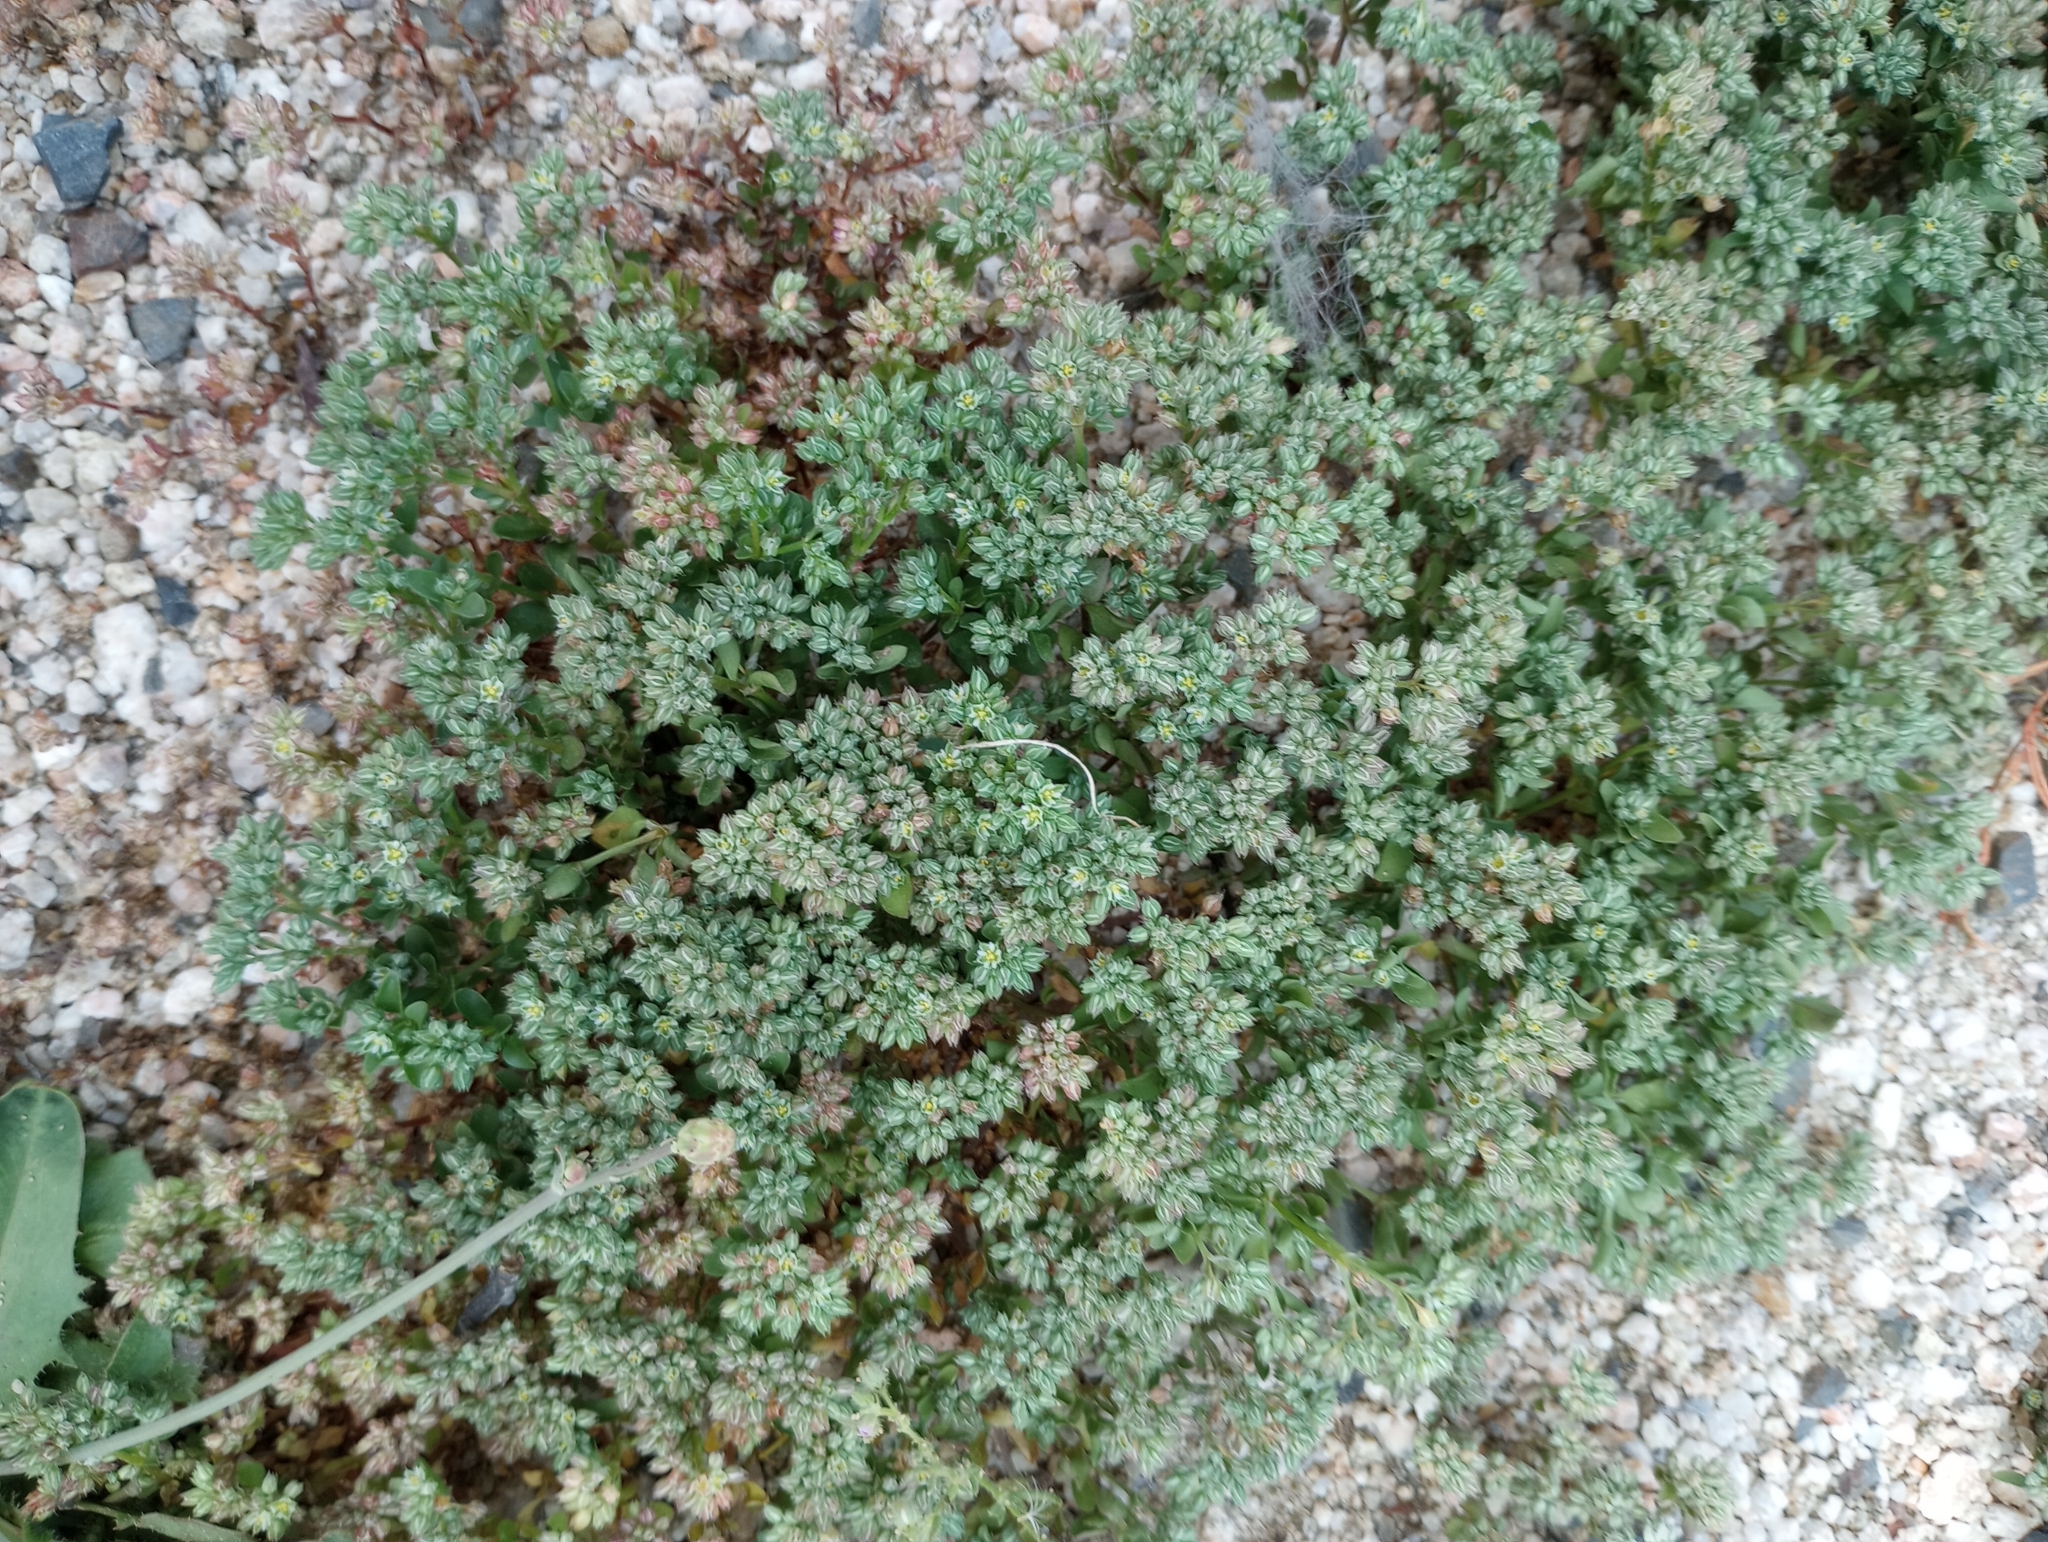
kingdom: Plantae
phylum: Tracheophyta
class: Magnoliopsida
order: Caryophyllales
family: Caryophyllaceae
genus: Polycarpon
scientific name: Polycarpon tetraphyllum
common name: Four-leaved all-seed
